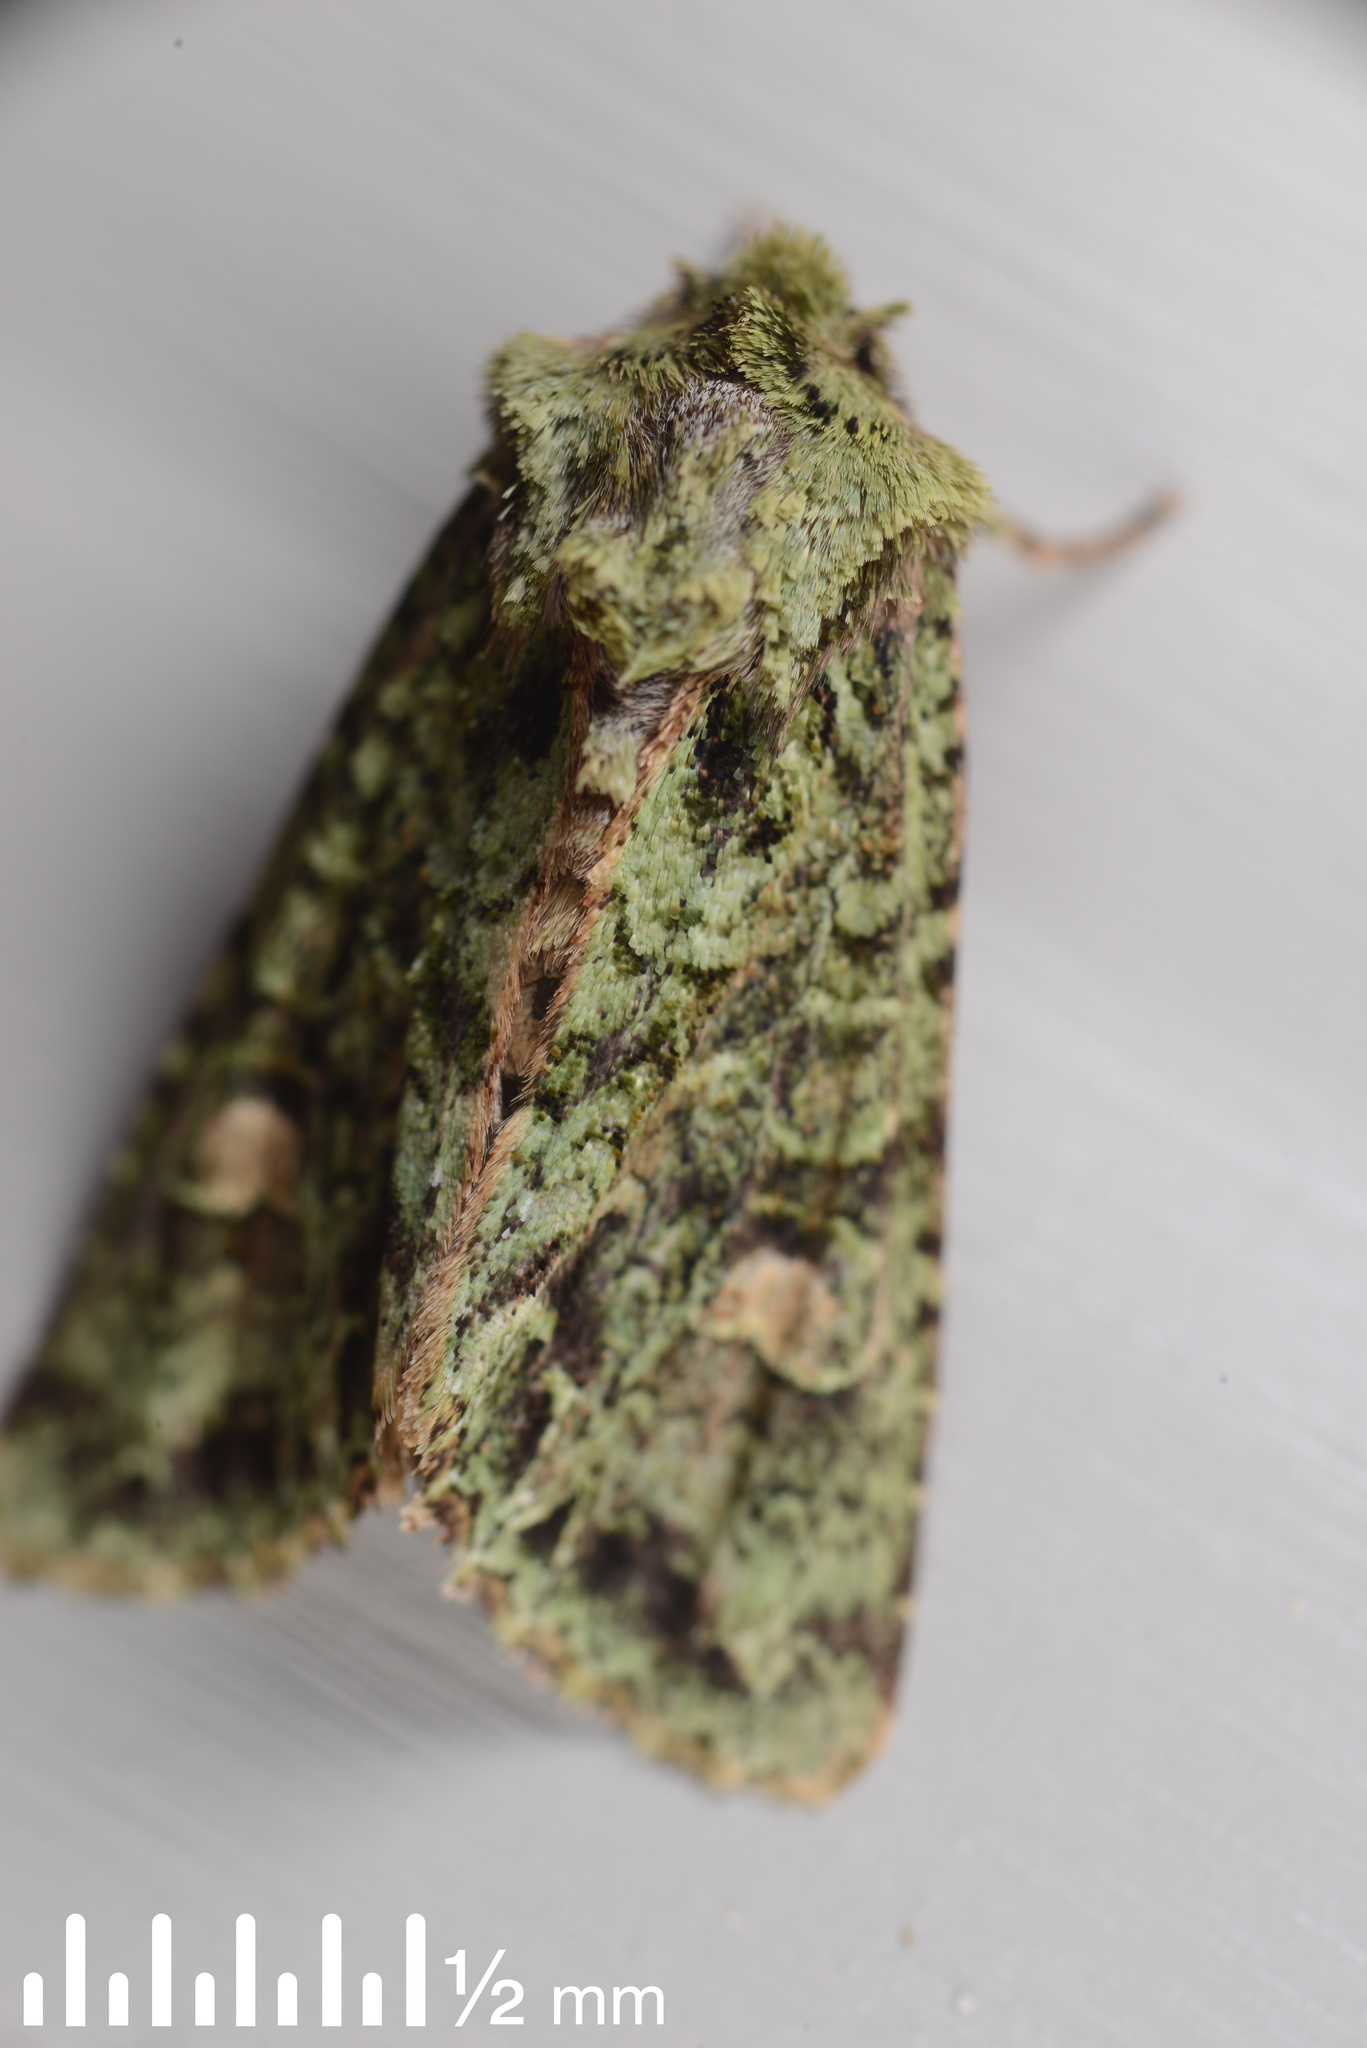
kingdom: Animalia
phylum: Arthropoda
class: Insecta
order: Lepidoptera
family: Noctuidae
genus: Ichneutica
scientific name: Ichneutica
